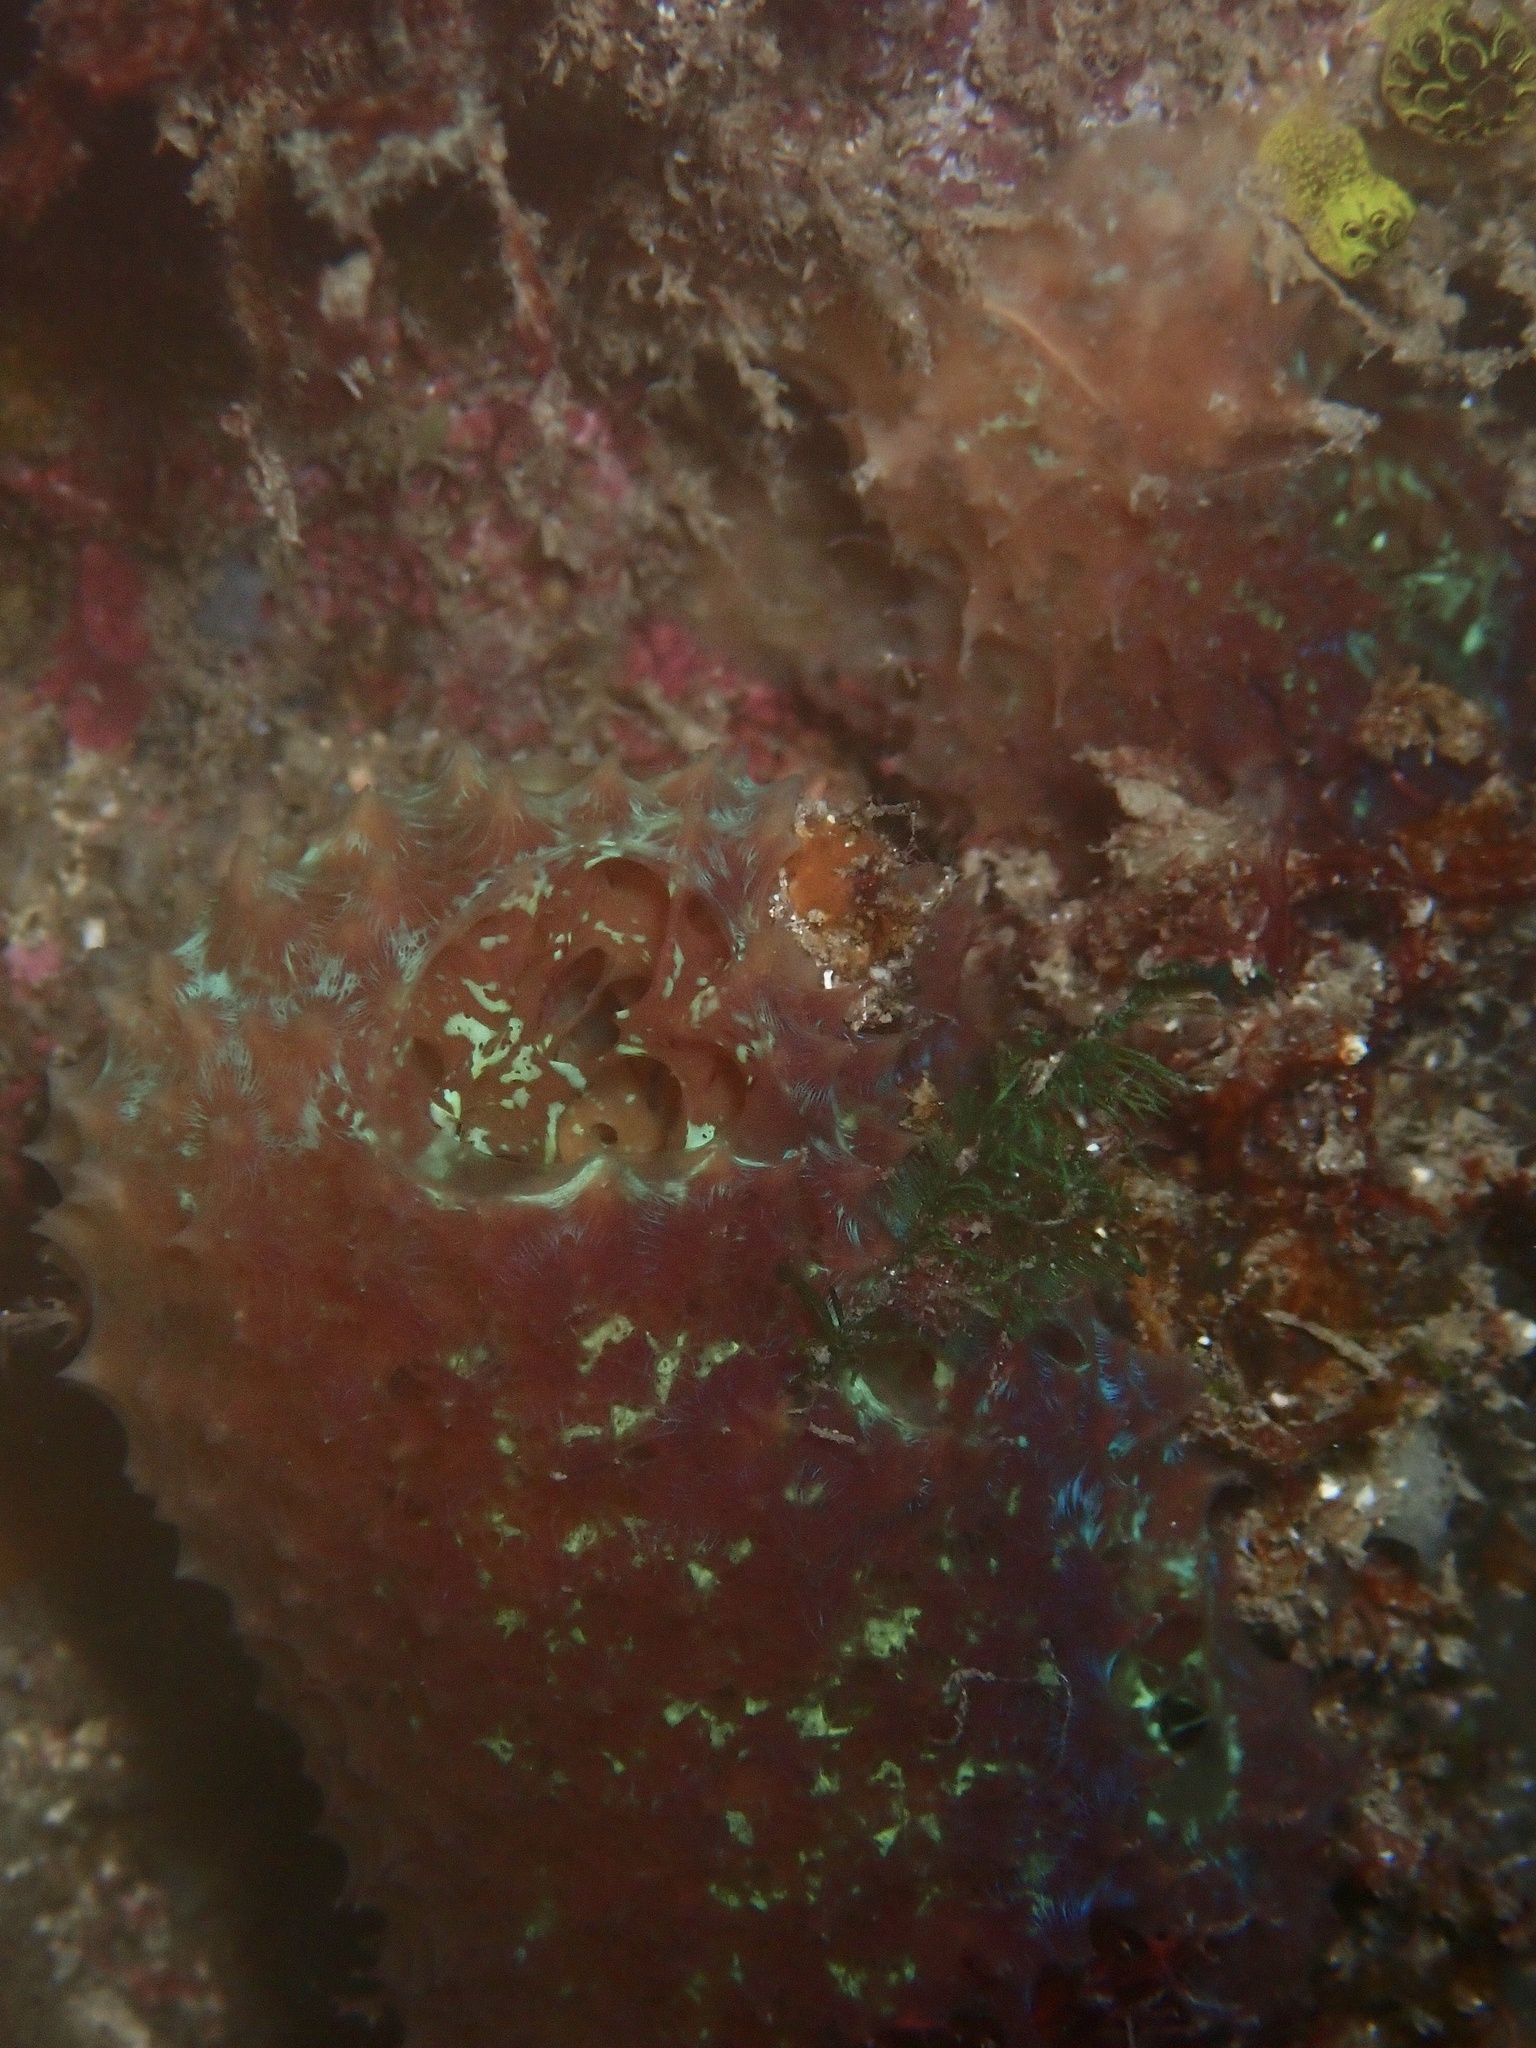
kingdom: Animalia
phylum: Porifera
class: Demospongiae
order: Poecilosclerida
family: Mycalidae
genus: Mycale
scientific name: Mycale laxissima
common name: Strawberry vase sponge
